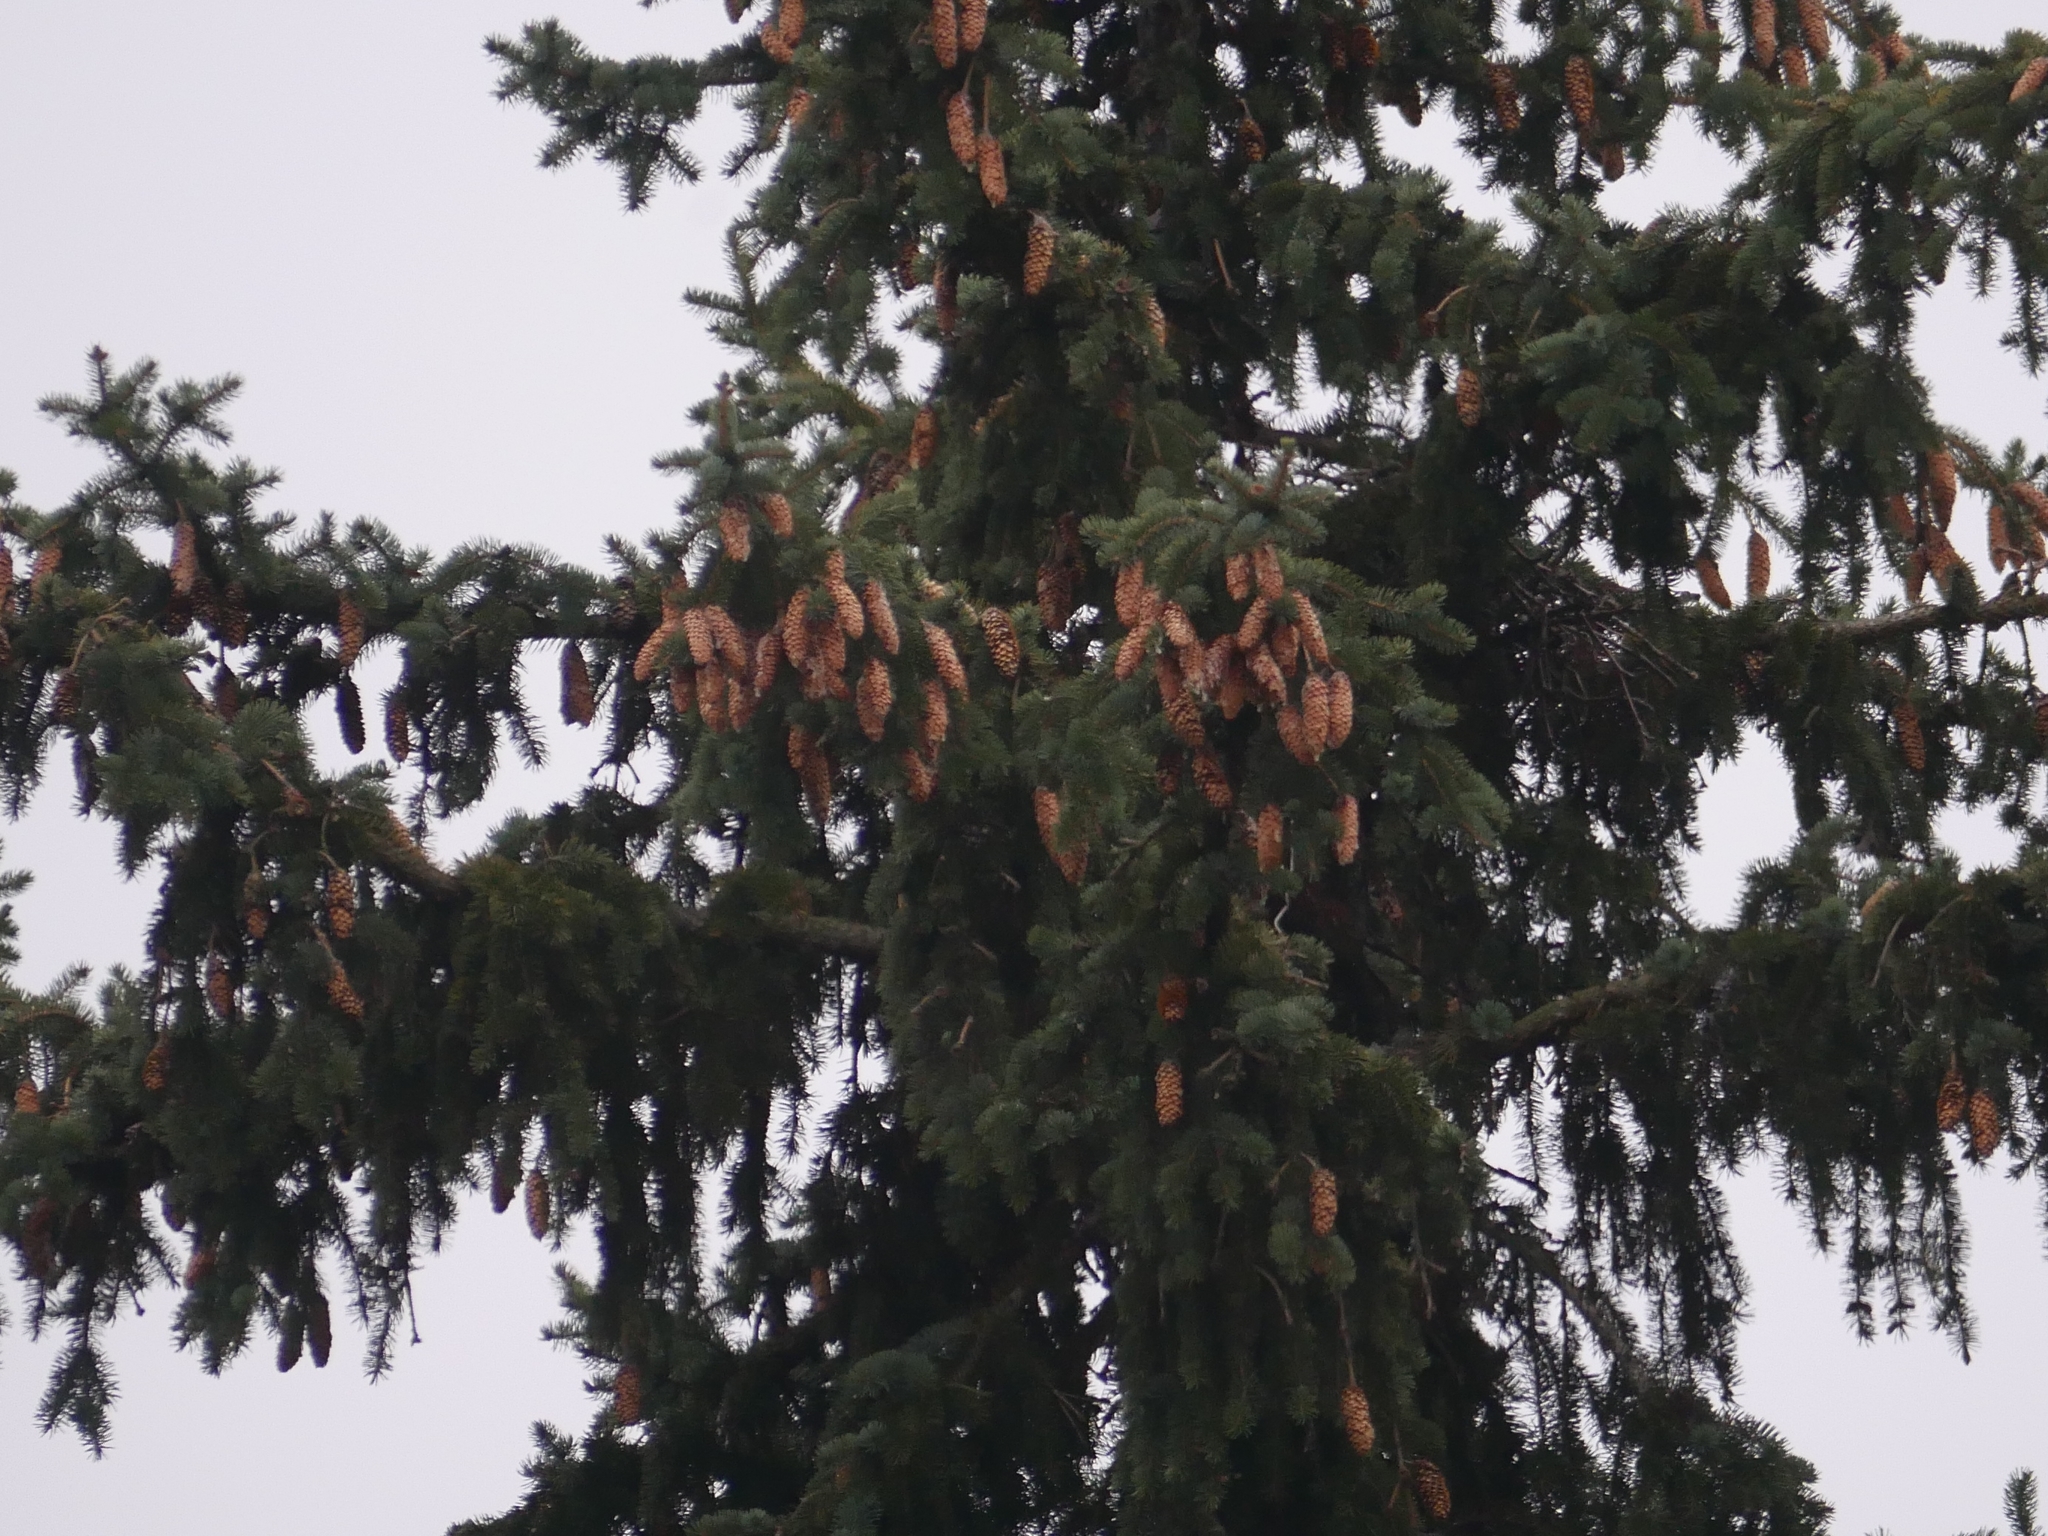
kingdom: Plantae
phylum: Tracheophyta
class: Pinopsida
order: Pinales
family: Pinaceae
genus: Picea
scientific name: Picea abies
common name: Norway spruce
